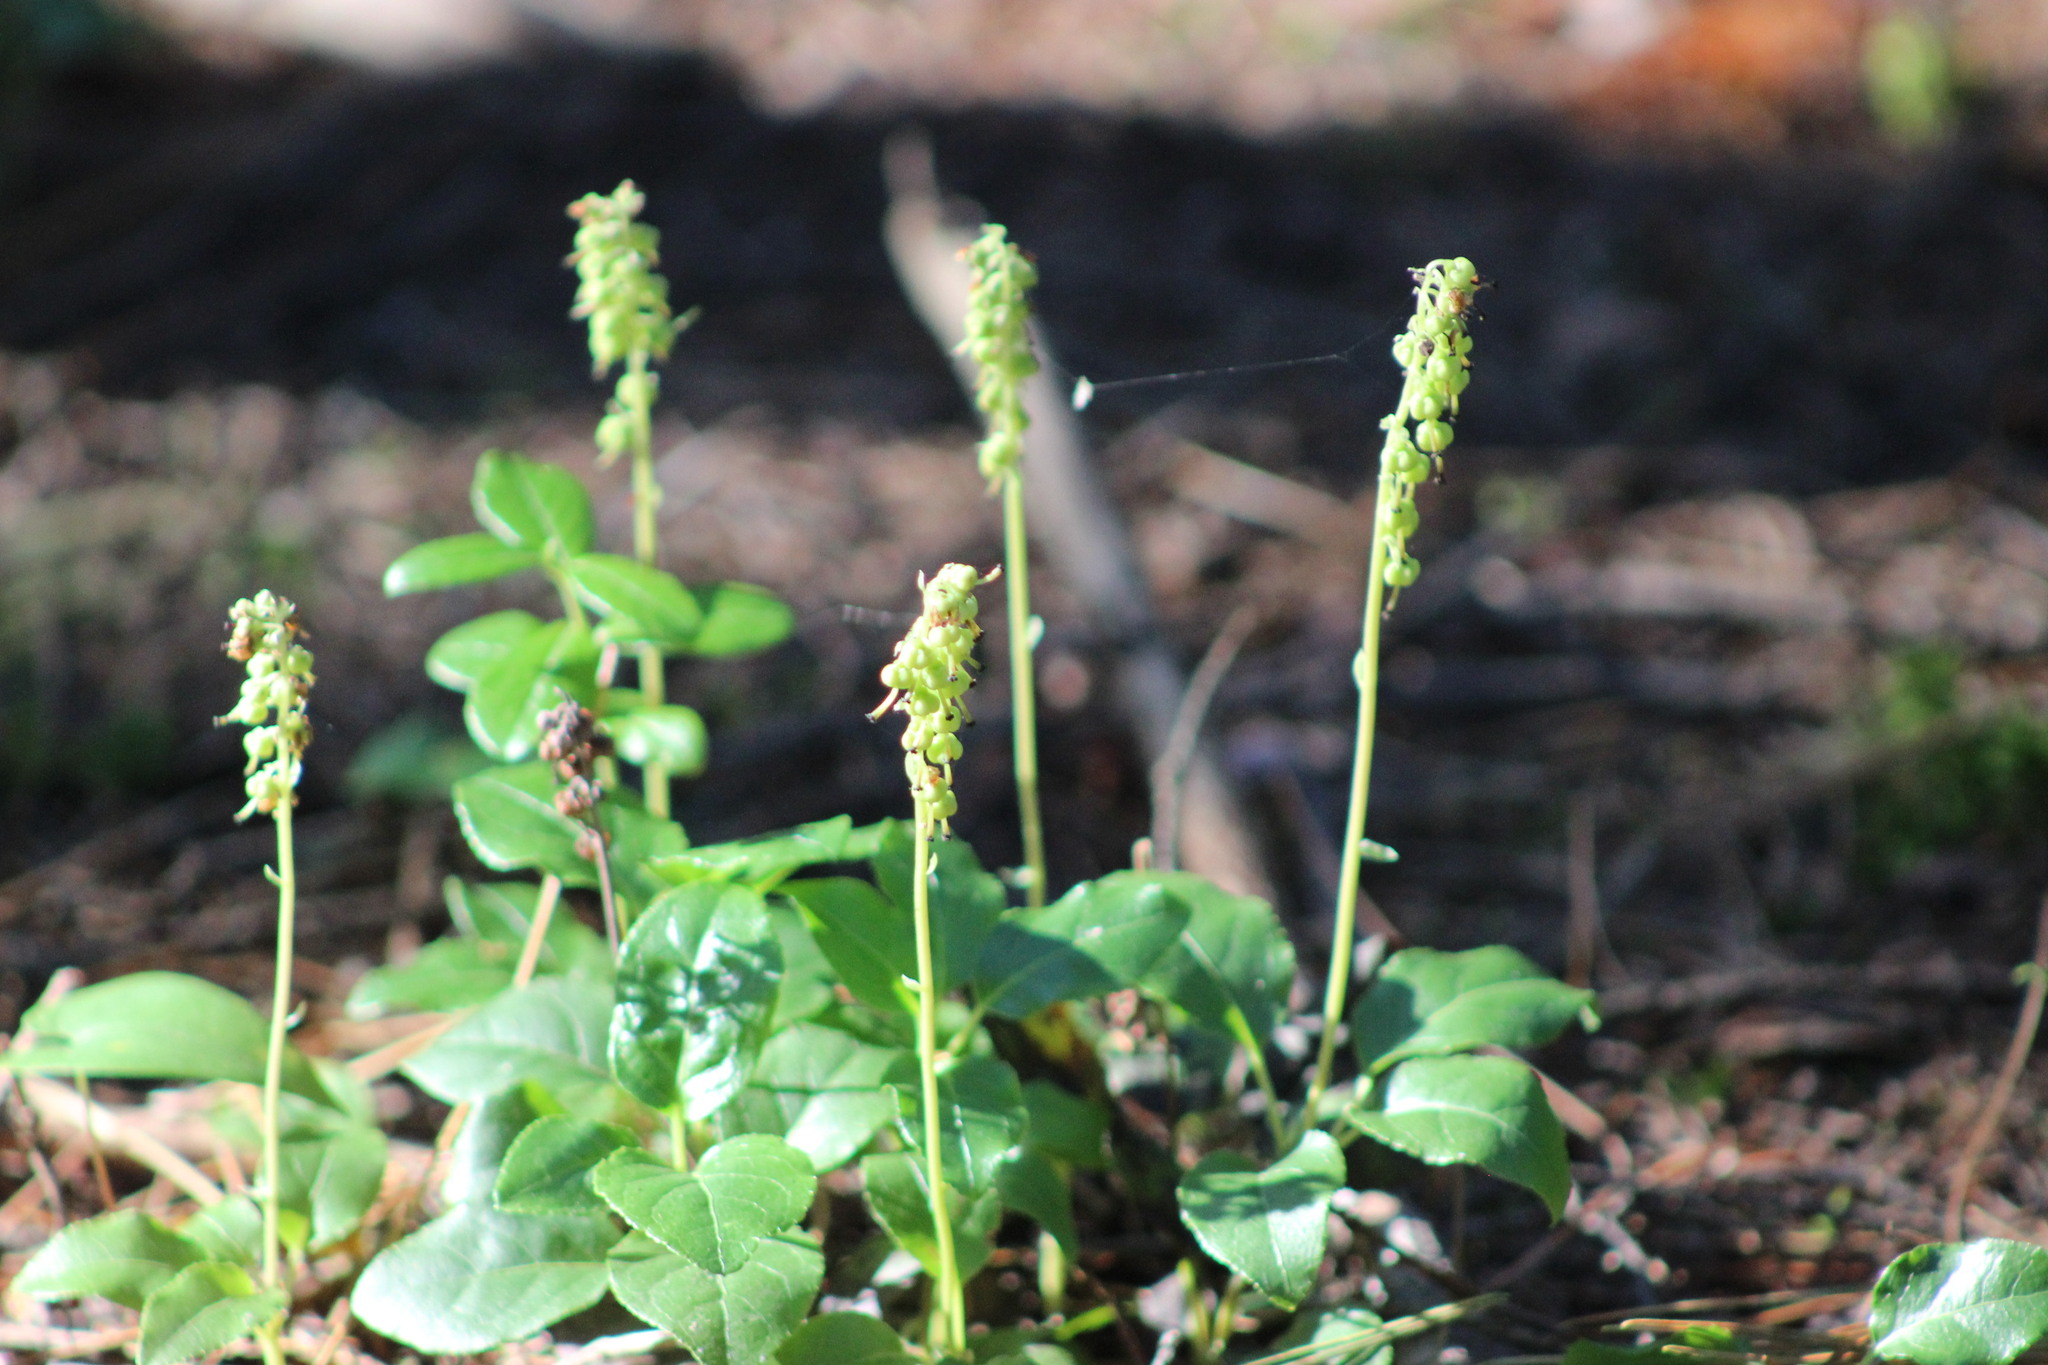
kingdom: Plantae
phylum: Tracheophyta
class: Magnoliopsida
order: Ericales
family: Ericaceae
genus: Orthilia
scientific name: Orthilia secunda
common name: One-sided orthilia
